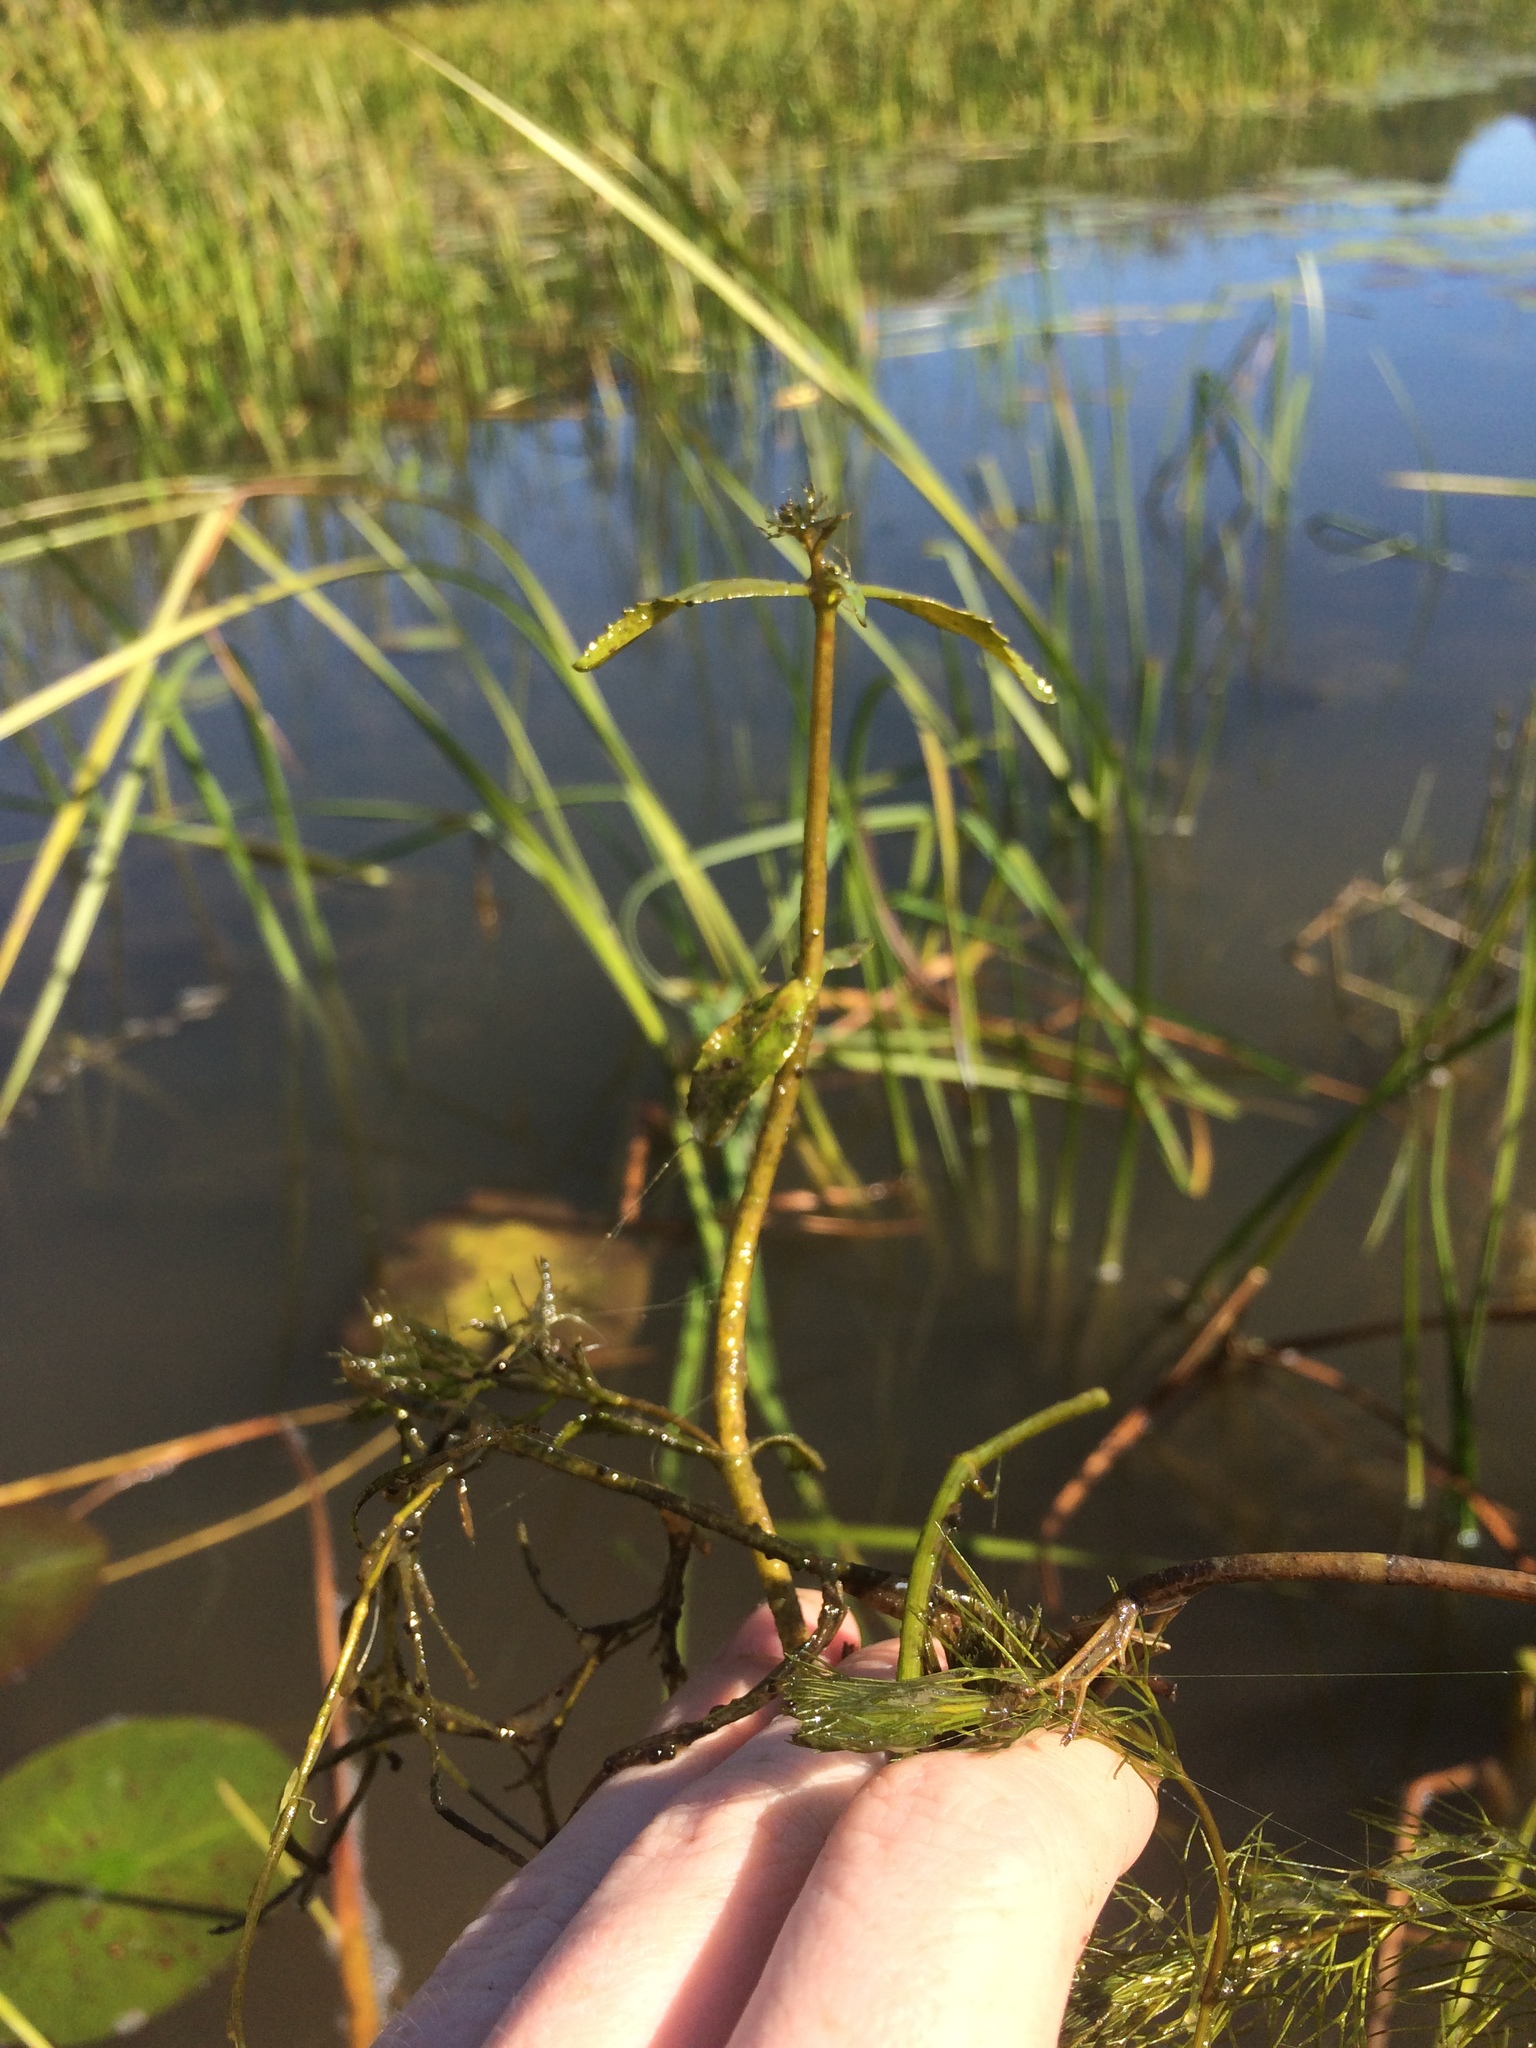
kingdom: Plantae
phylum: Tracheophyta
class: Magnoliopsida
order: Asterales
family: Asteraceae
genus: Bidens
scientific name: Bidens beckii
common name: Beck's beggarticks
